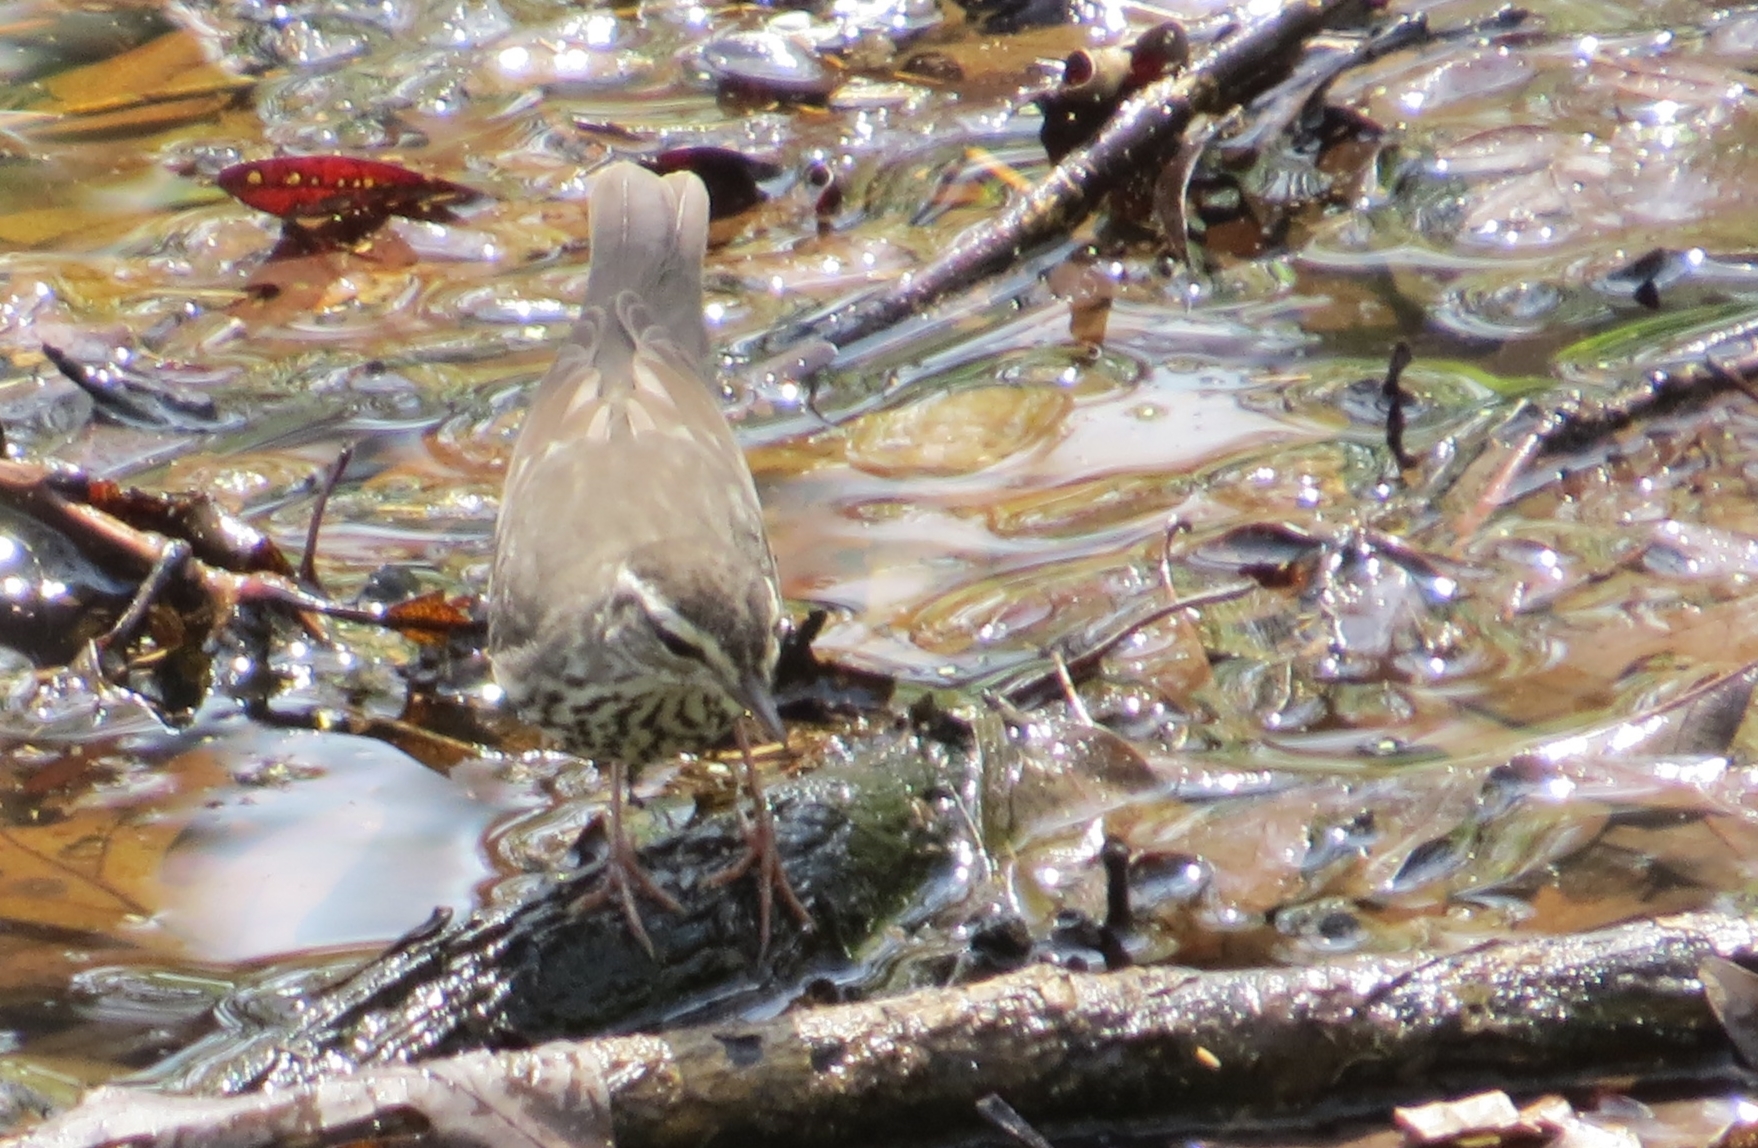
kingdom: Animalia
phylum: Chordata
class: Aves
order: Passeriformes
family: Parulidae
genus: Parkesia
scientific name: Parkesia noveboracensis
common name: Northern waterthrush
